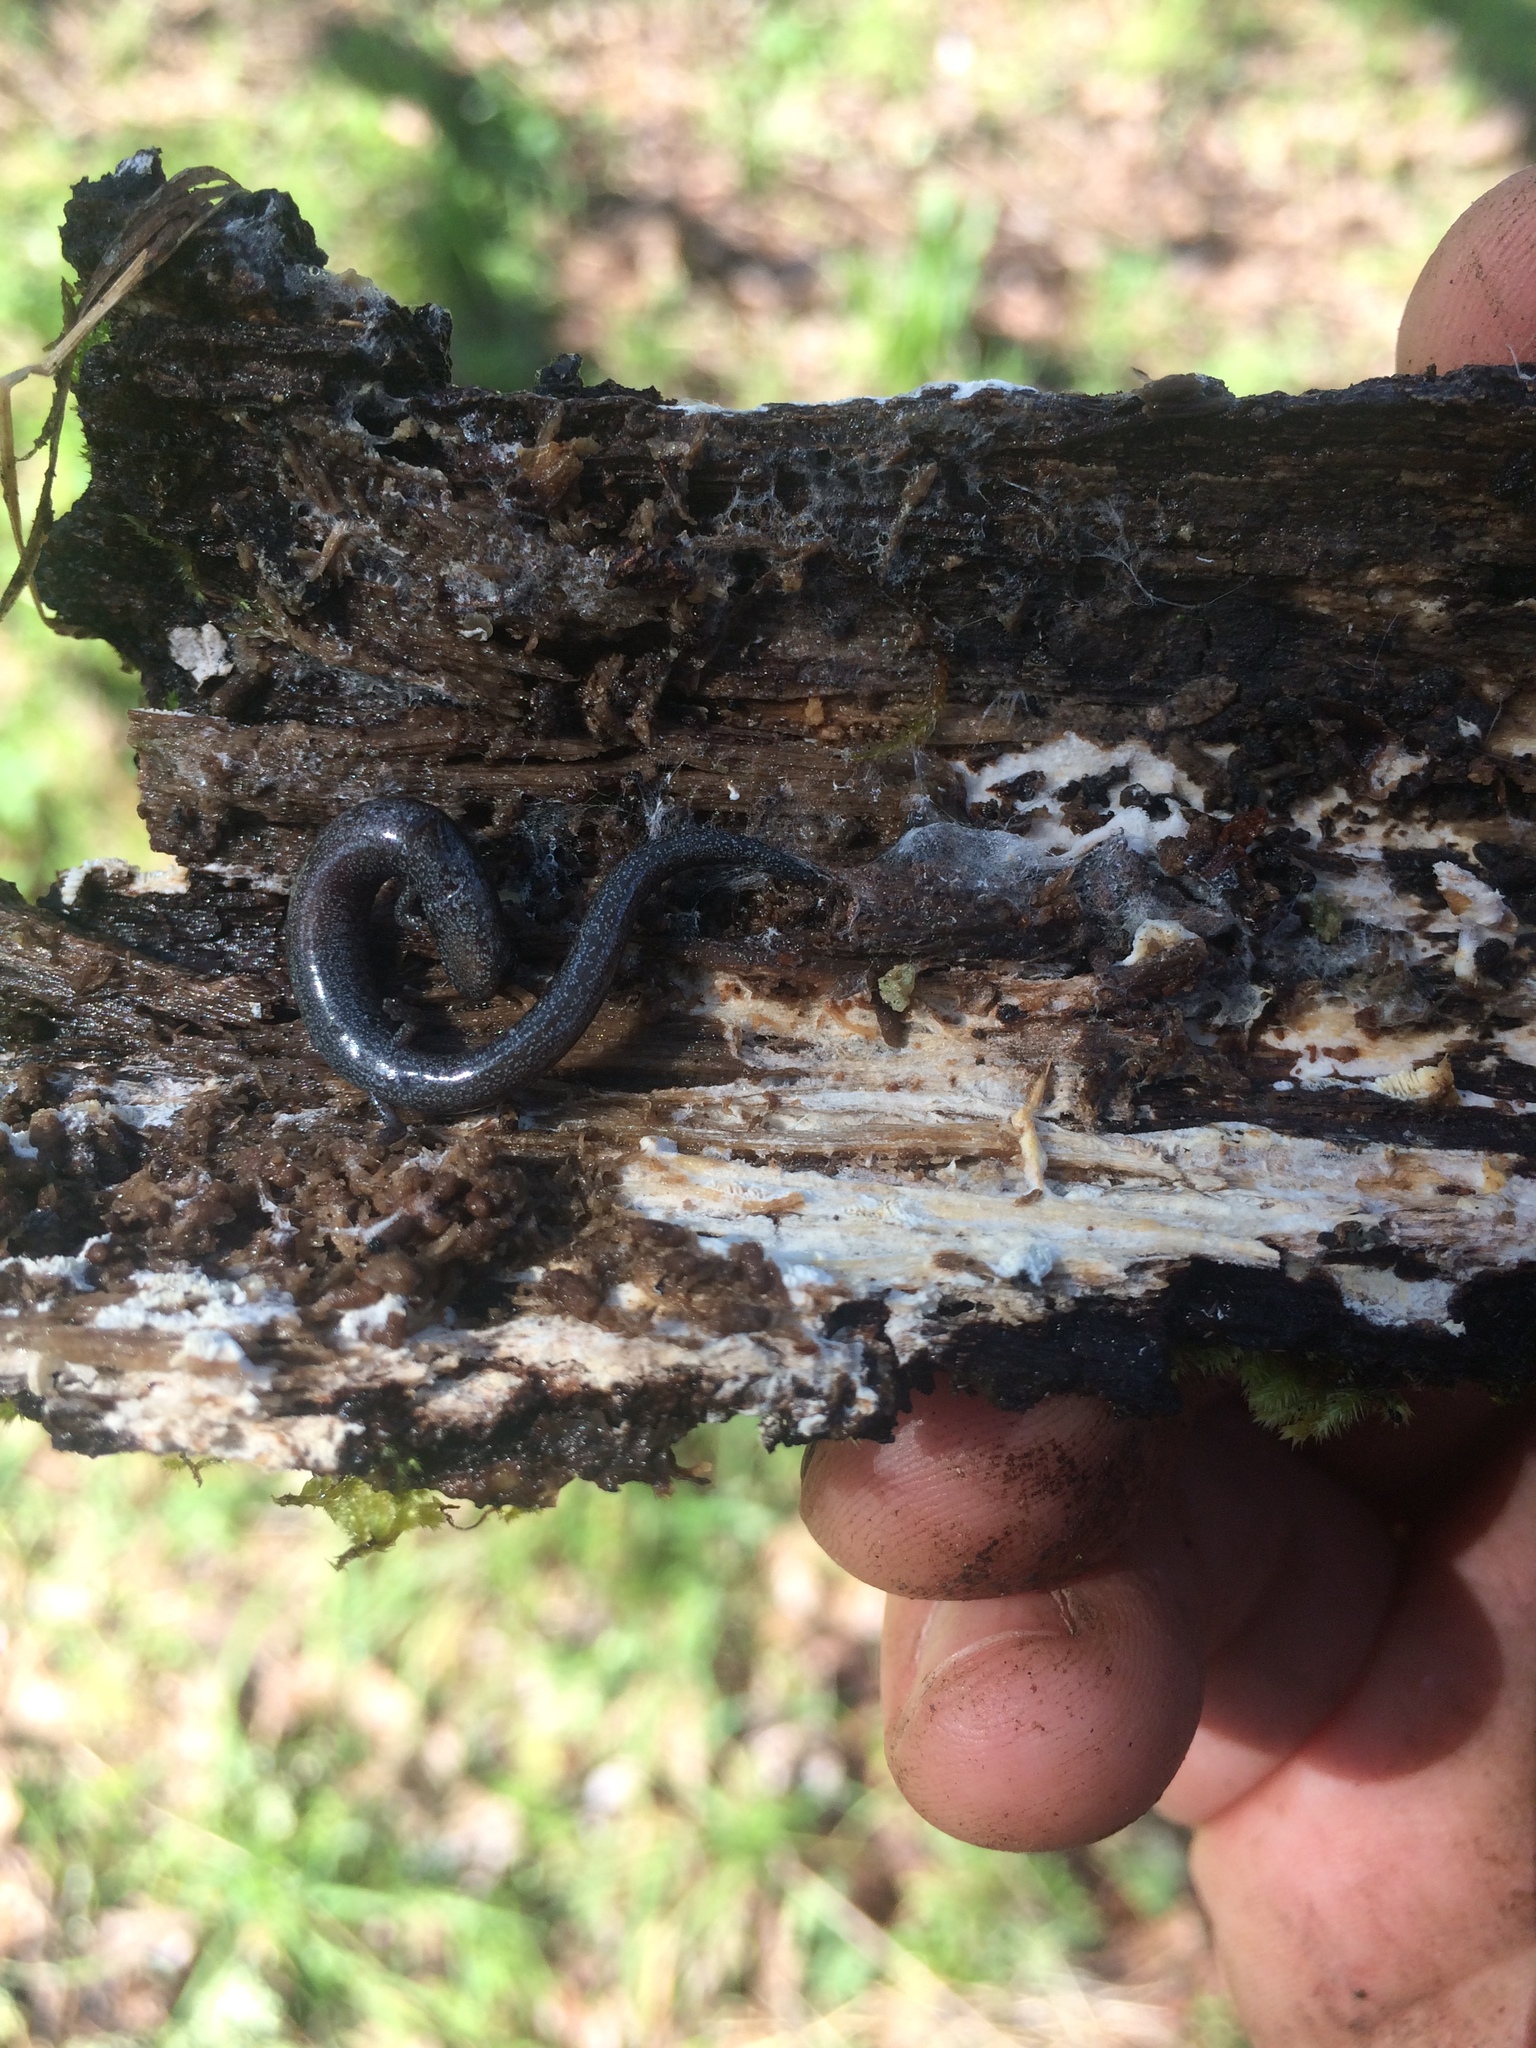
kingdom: Animalia
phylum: Chordata
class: Amphibia
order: Caudata
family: Plethodontidae
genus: Batrachoseps
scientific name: Batrachoseps attenuatus
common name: California slender salamander
